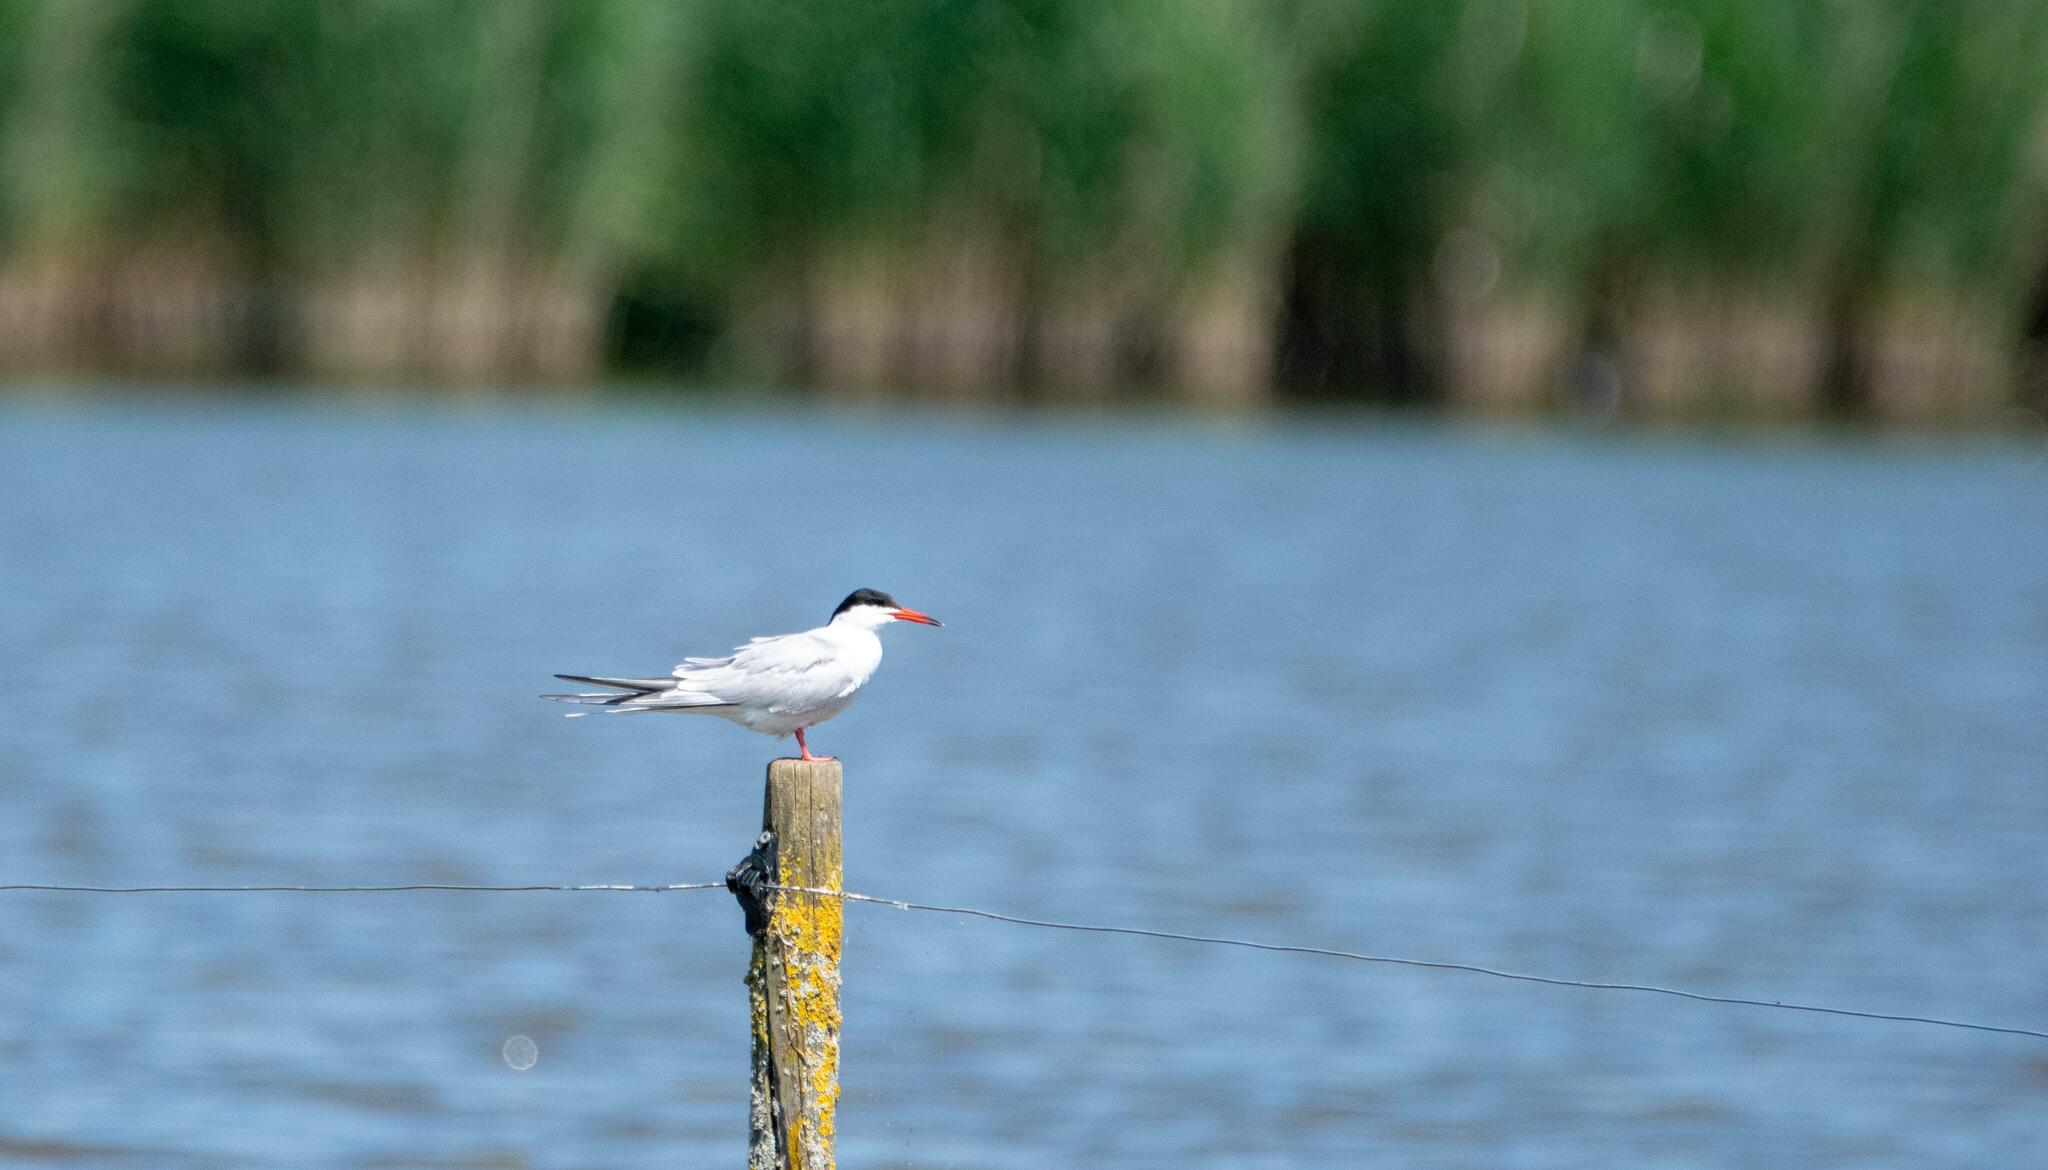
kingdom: Animalia
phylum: Chordata
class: Aves
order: Charadriiformes
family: Laridae
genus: Sterna
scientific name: Sterna hirundo
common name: Common tern
